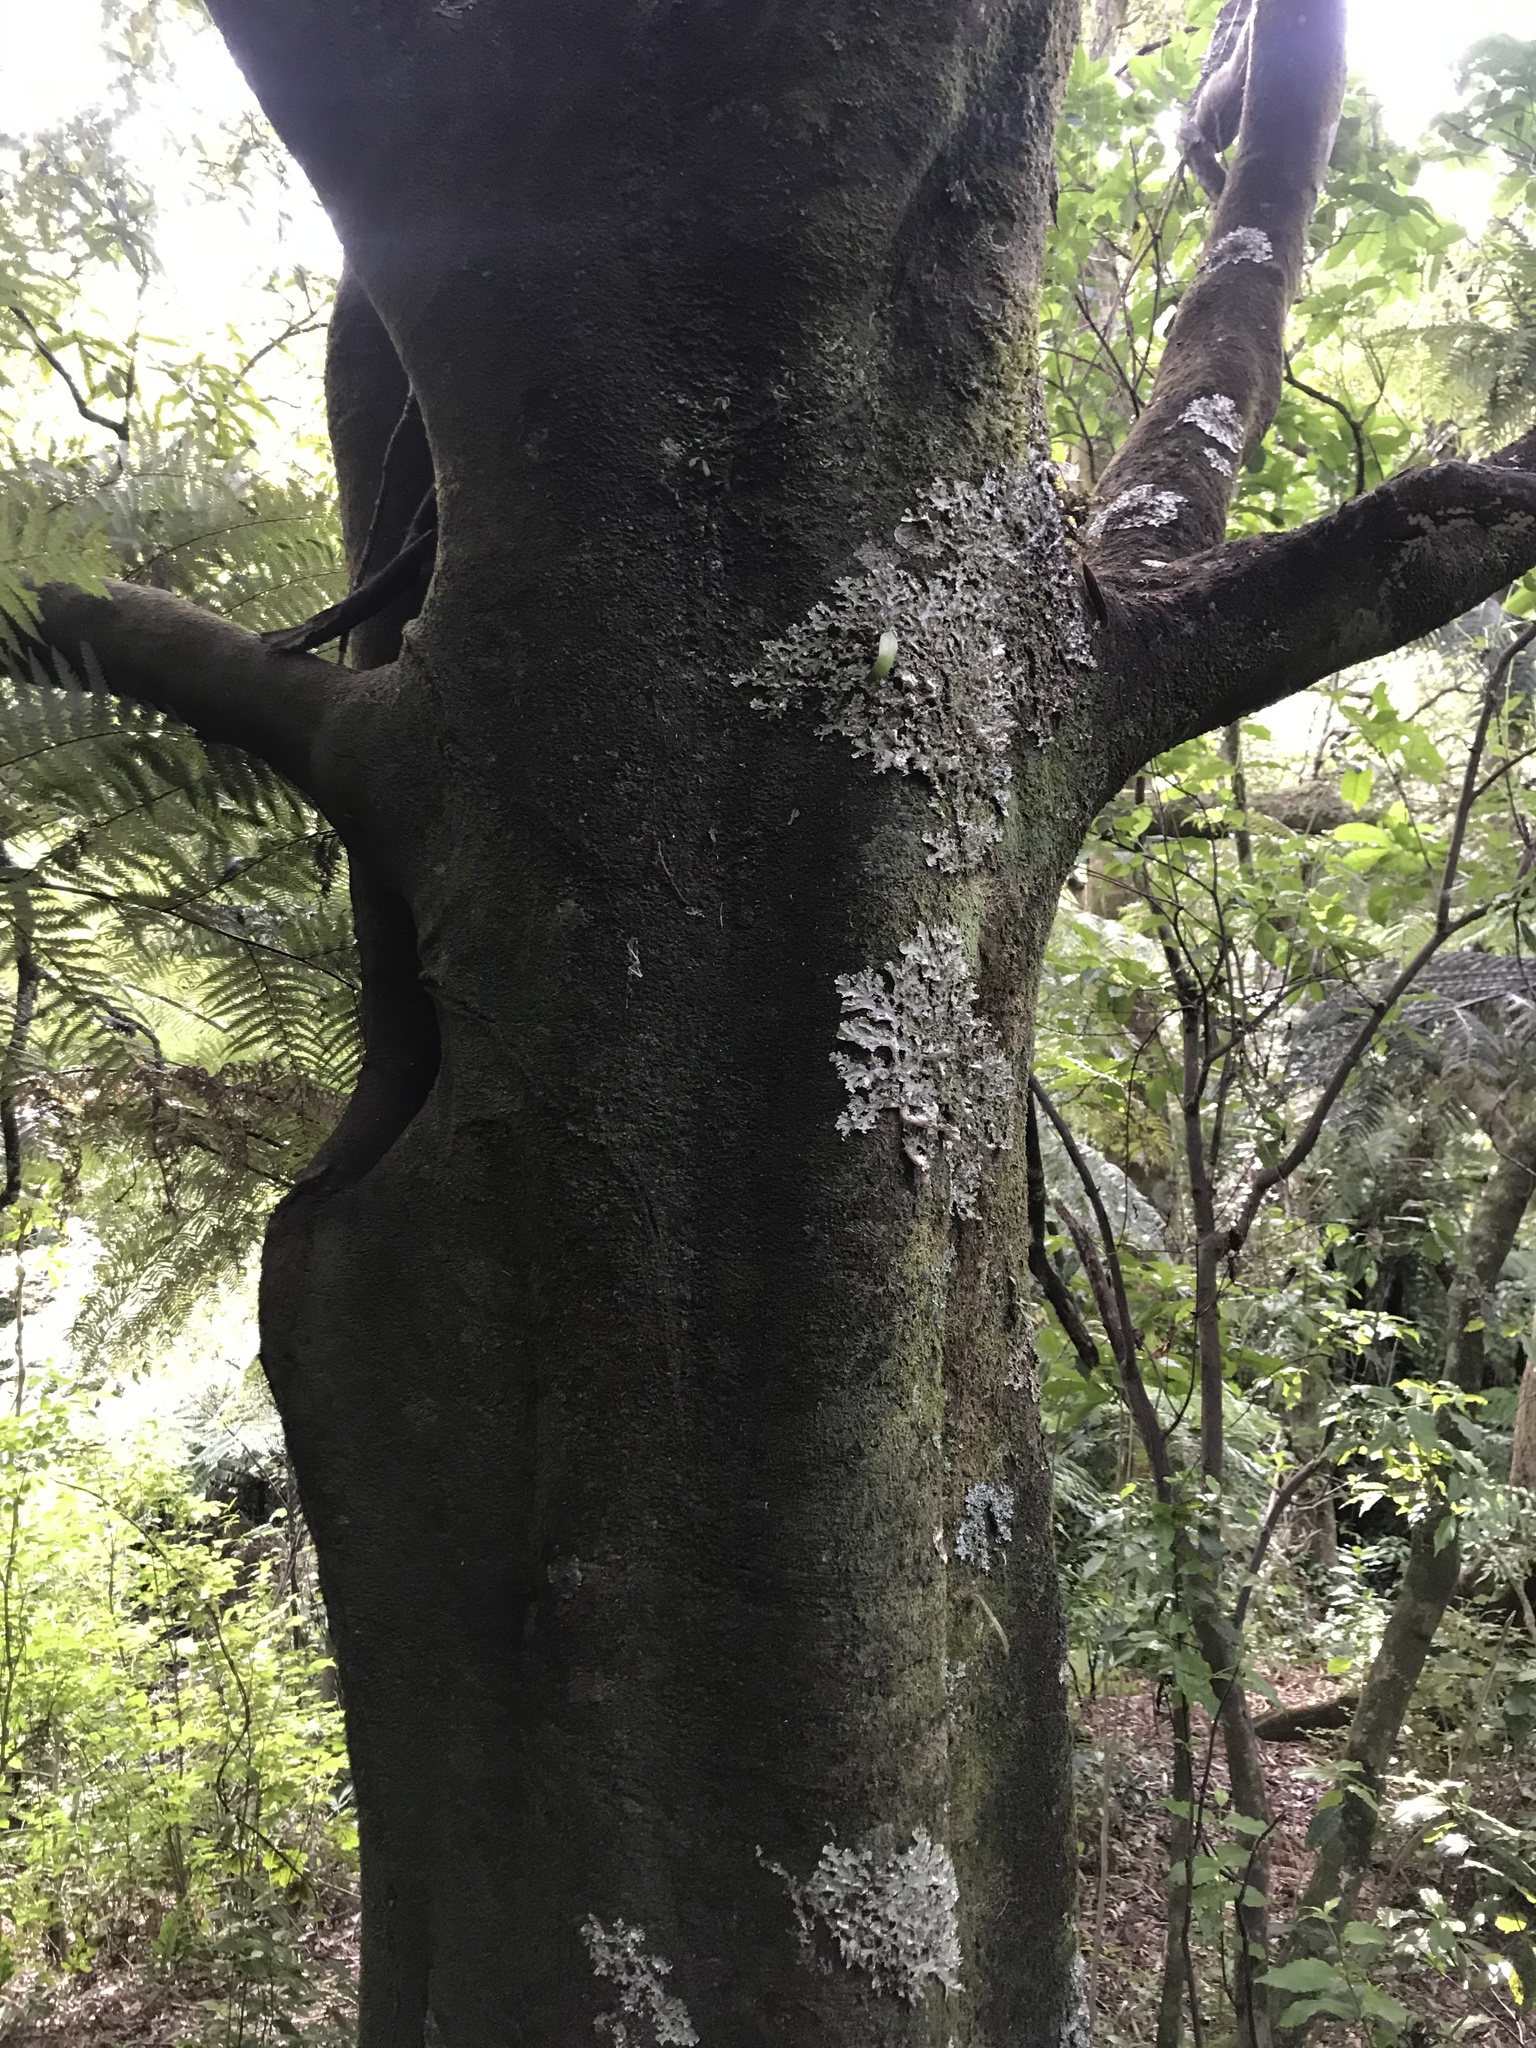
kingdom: Plantae
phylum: Tracheophyta
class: Magnoliopsida
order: Laurales
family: Lauraceae
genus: Beilschmiedia
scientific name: Beilschmiedia tawa
